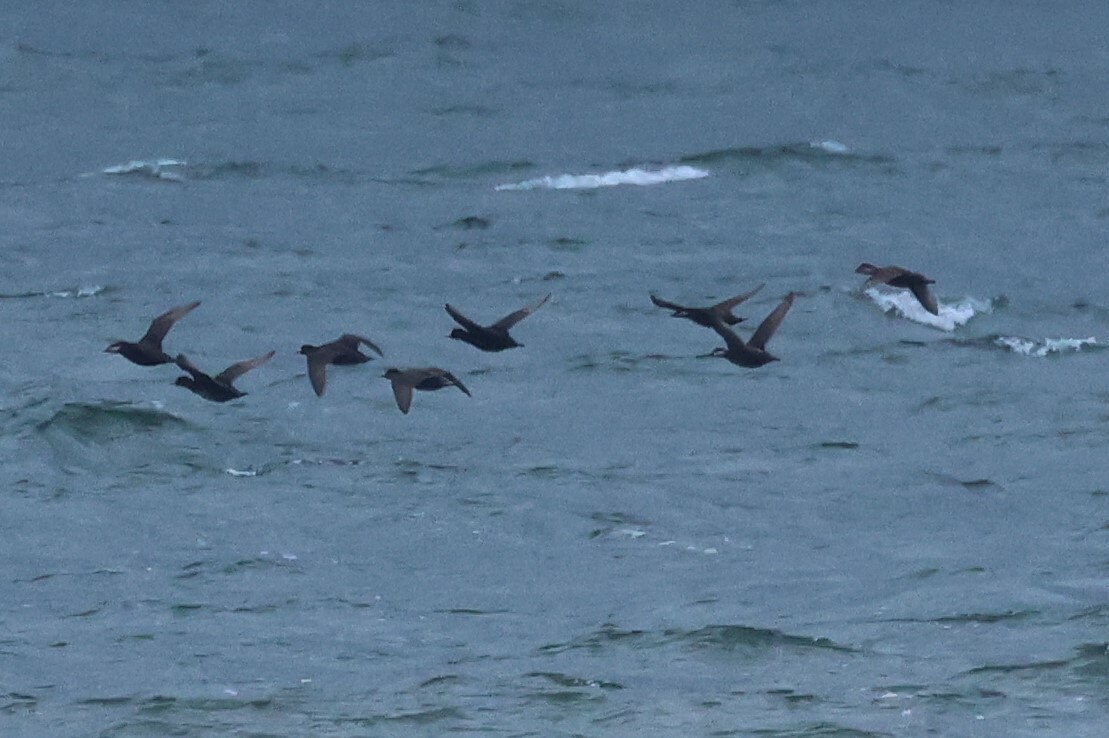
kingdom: Animalia
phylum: Chordata
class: Aves
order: Anseriformes
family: Anatidae
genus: Melanitta
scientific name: Melanitta americana
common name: Black scoter
